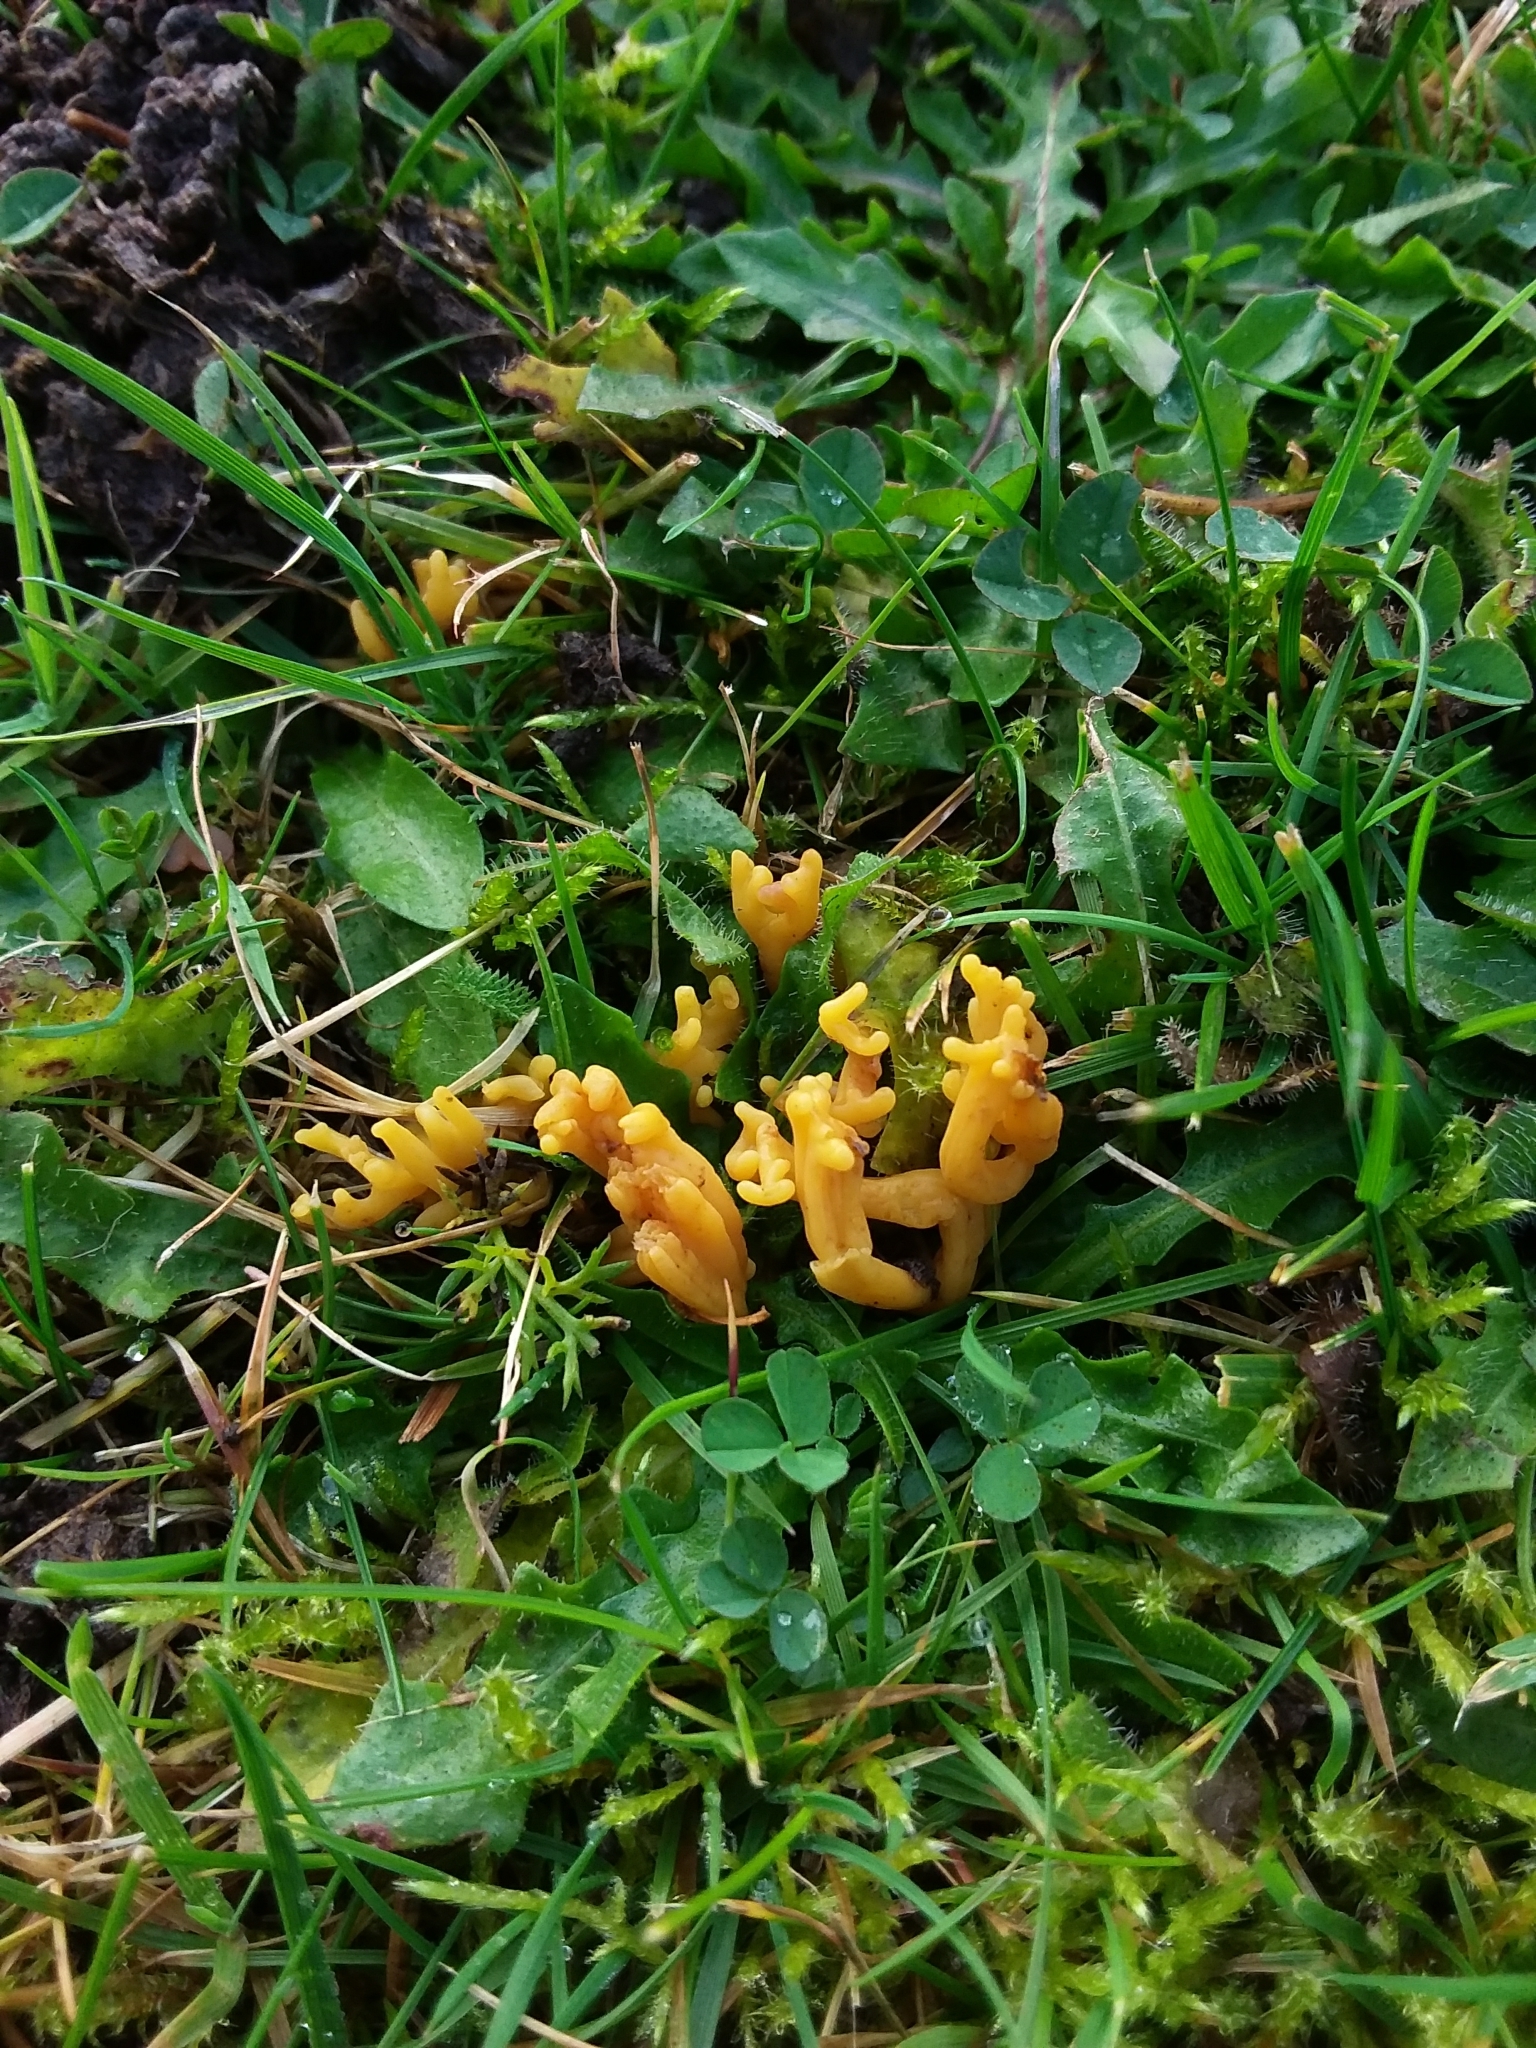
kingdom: Fungi
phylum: Basidiomycota
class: Agaricomycetes
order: Agaricales
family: Clavariaceae
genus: Clavulinopsis
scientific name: Clavulinopsis corniculata
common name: Meadow coral
